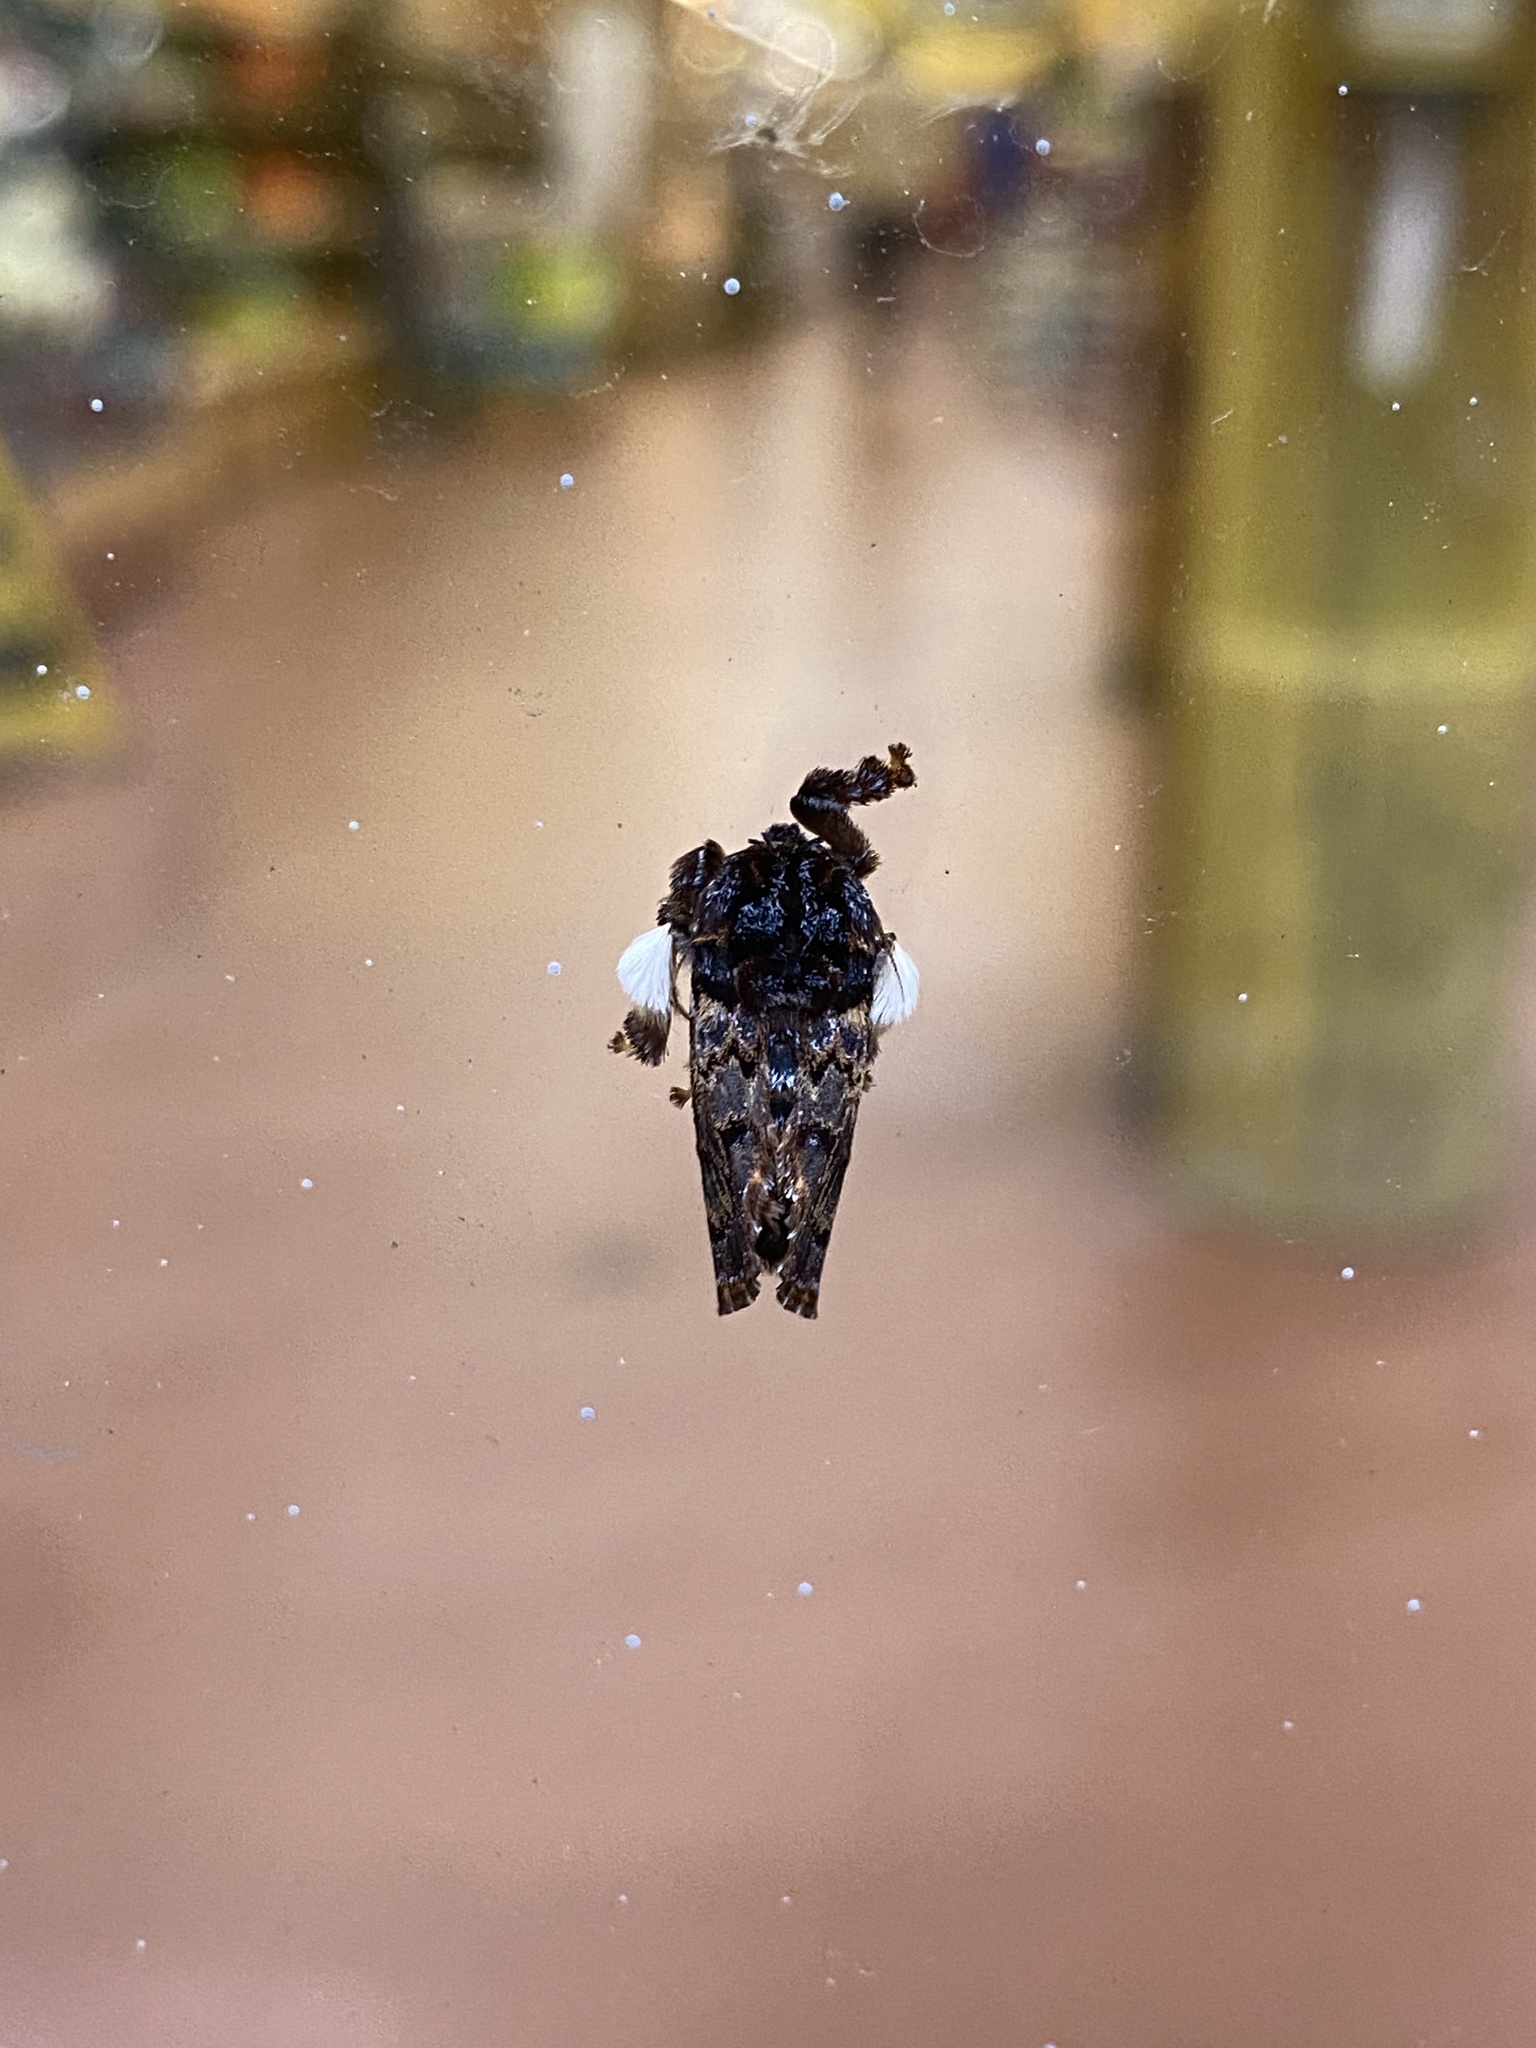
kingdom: Animalia
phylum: Arthropoda
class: Insecta
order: Lepidoptera
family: Limacodidae
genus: Phobetron
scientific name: Phobetron pithecium
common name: Hag moth
